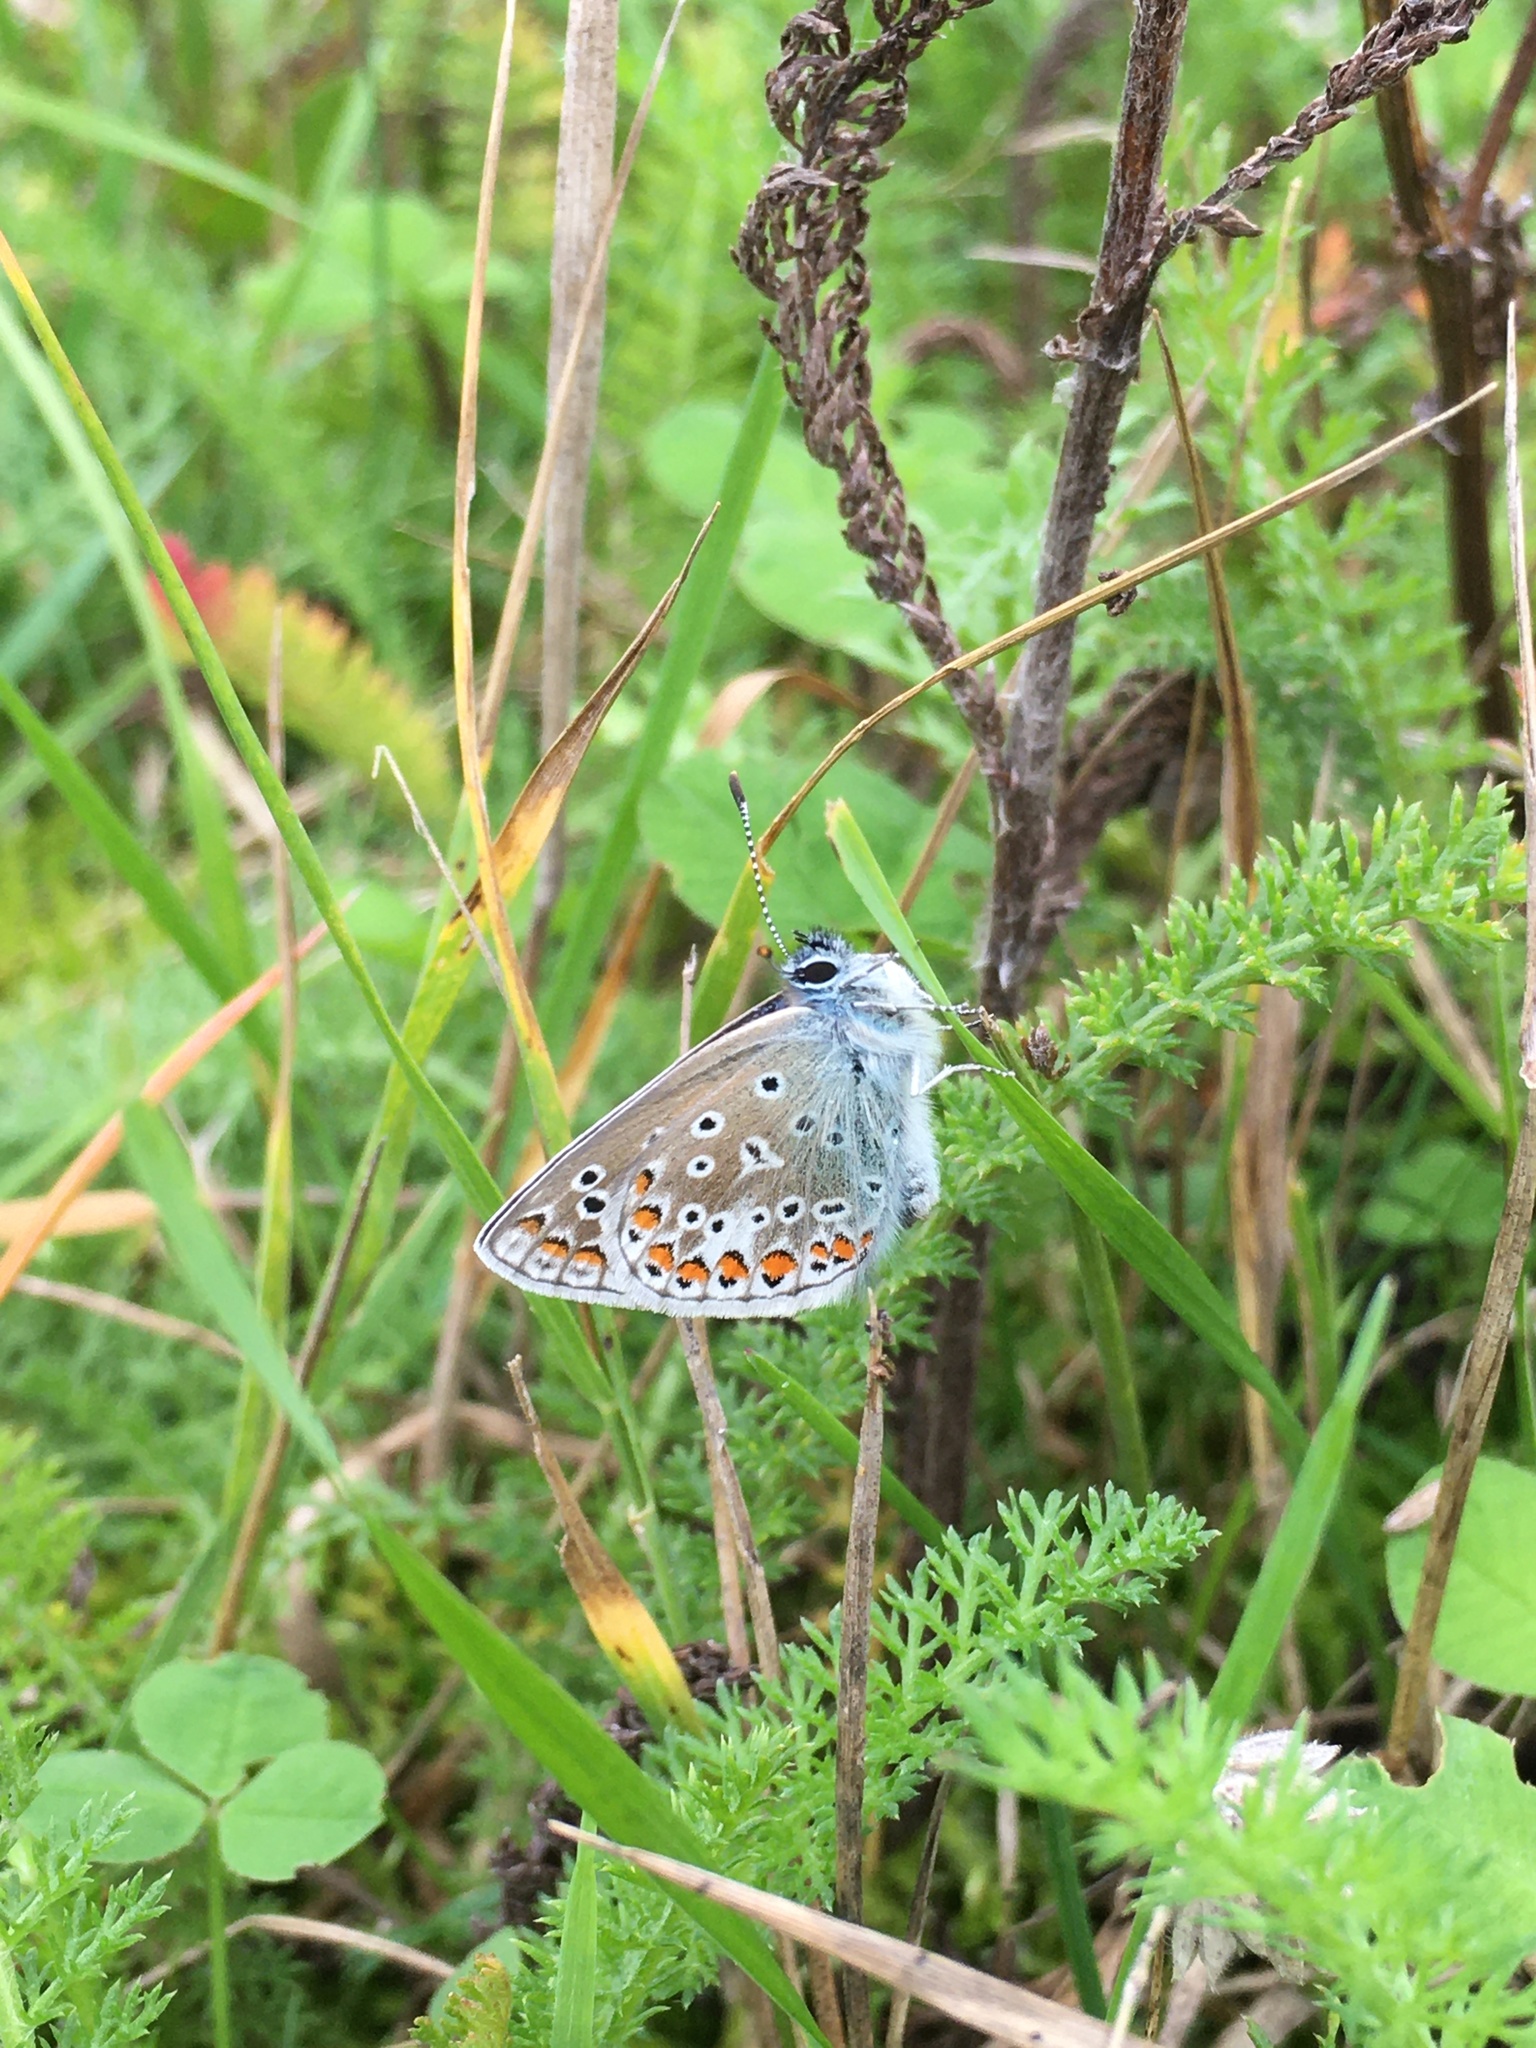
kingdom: Animalia
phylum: Arthropoda
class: Insecta
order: Lepidoptera
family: Lycaenidae
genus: Polyommatus
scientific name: Polyommatus icarus
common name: Common blue
